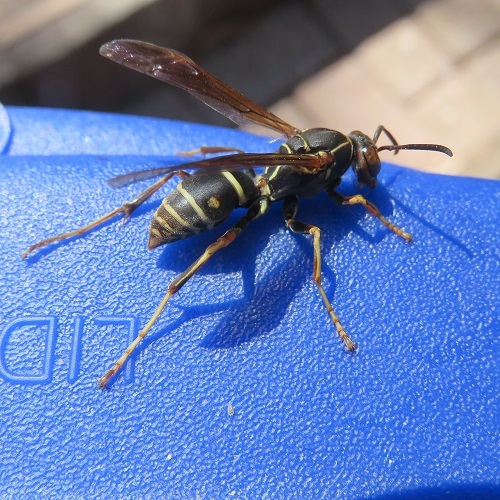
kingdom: Animalia
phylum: Arthropoda
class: Insecta
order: Hymenoptera
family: Eumenidae
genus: Polistes
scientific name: Polistes fuscatus
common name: Dark paper wasp
